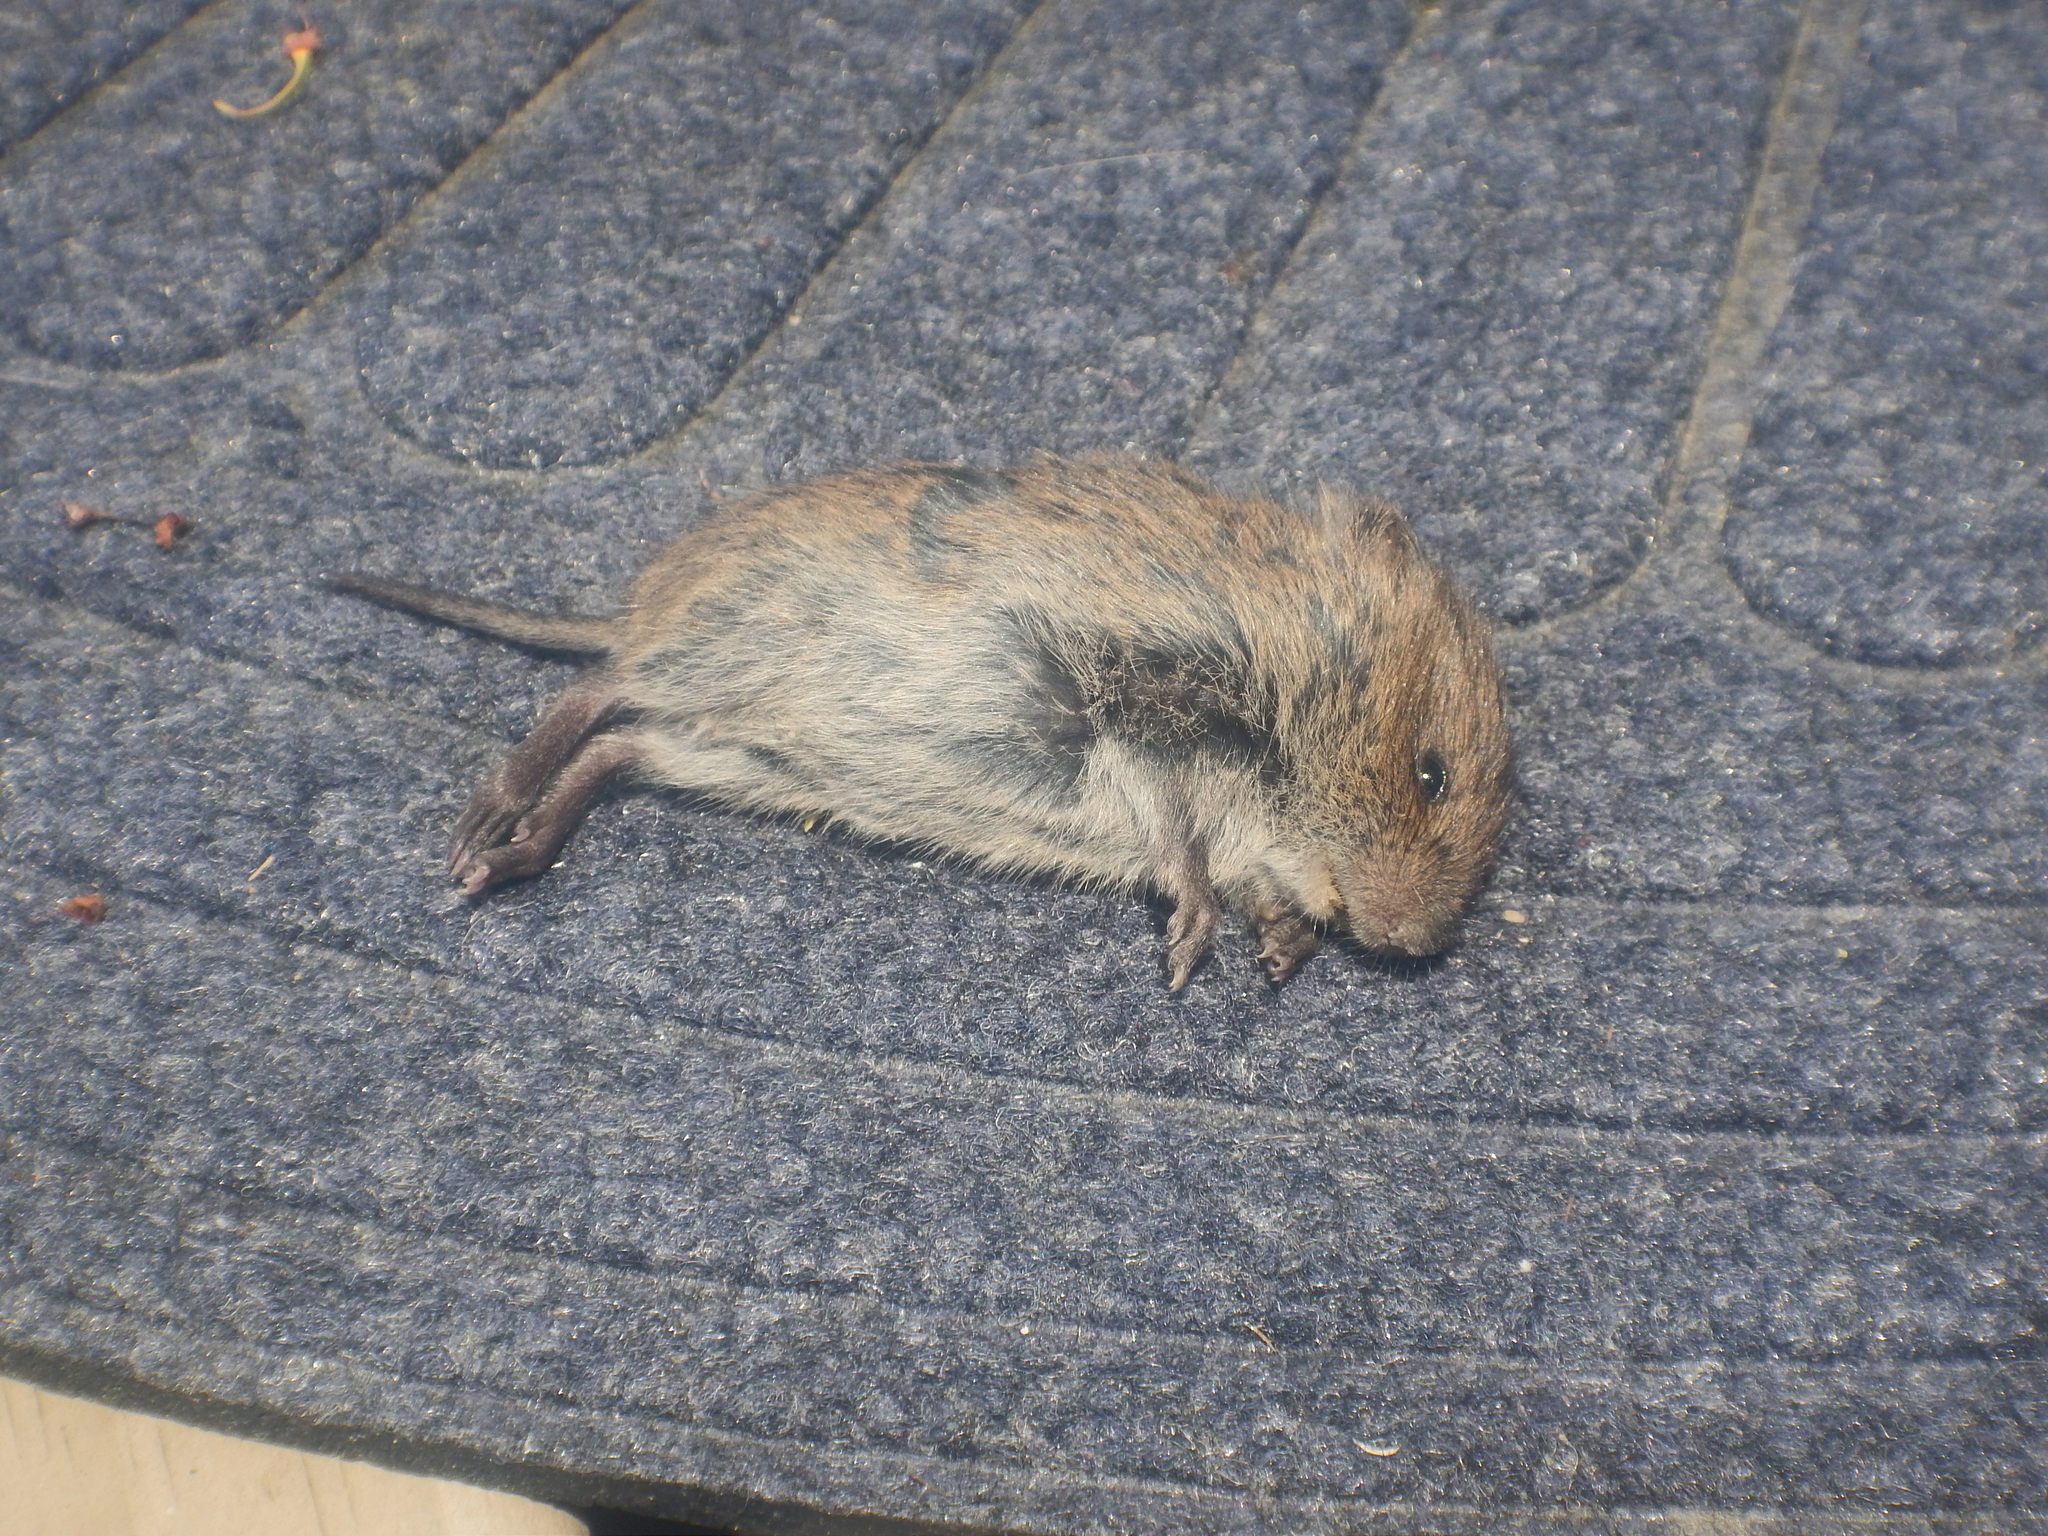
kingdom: Animalia
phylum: Chordata
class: Mammalia
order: Rodentia
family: Cricetidae
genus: Microtus
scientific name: Microtus pennsylvanicus
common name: Meadow vole
